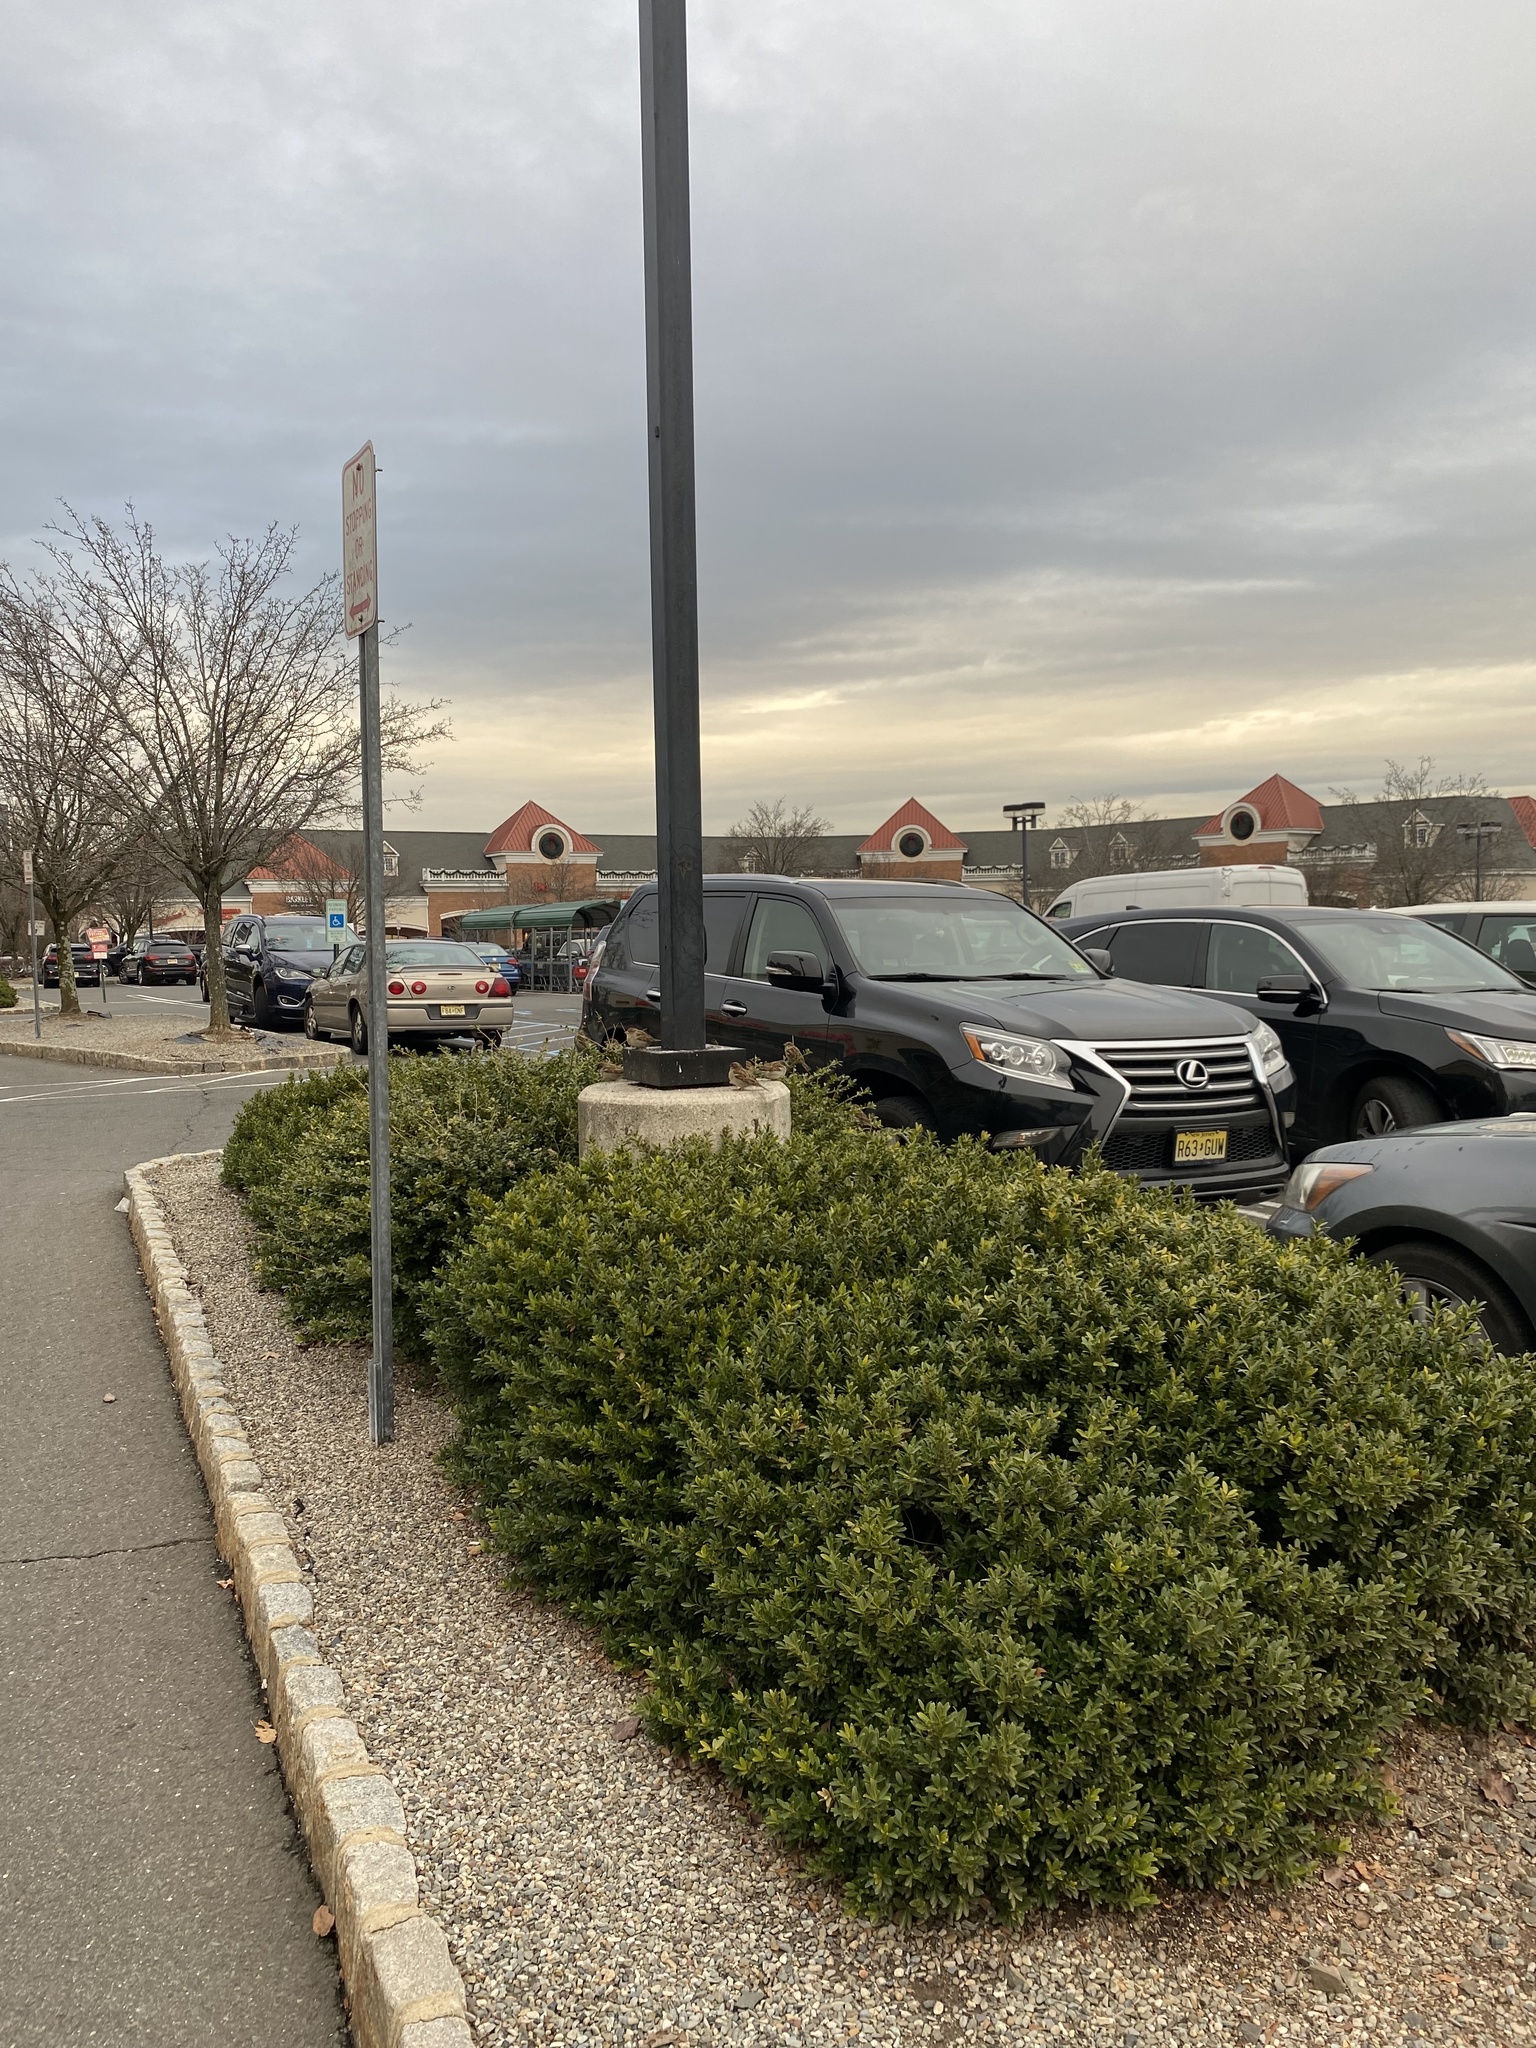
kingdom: Animalia
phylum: Chordata
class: Aves
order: Passeriformes
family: Passeridae
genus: Passer
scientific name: Passer domesticus
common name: House sparrow
